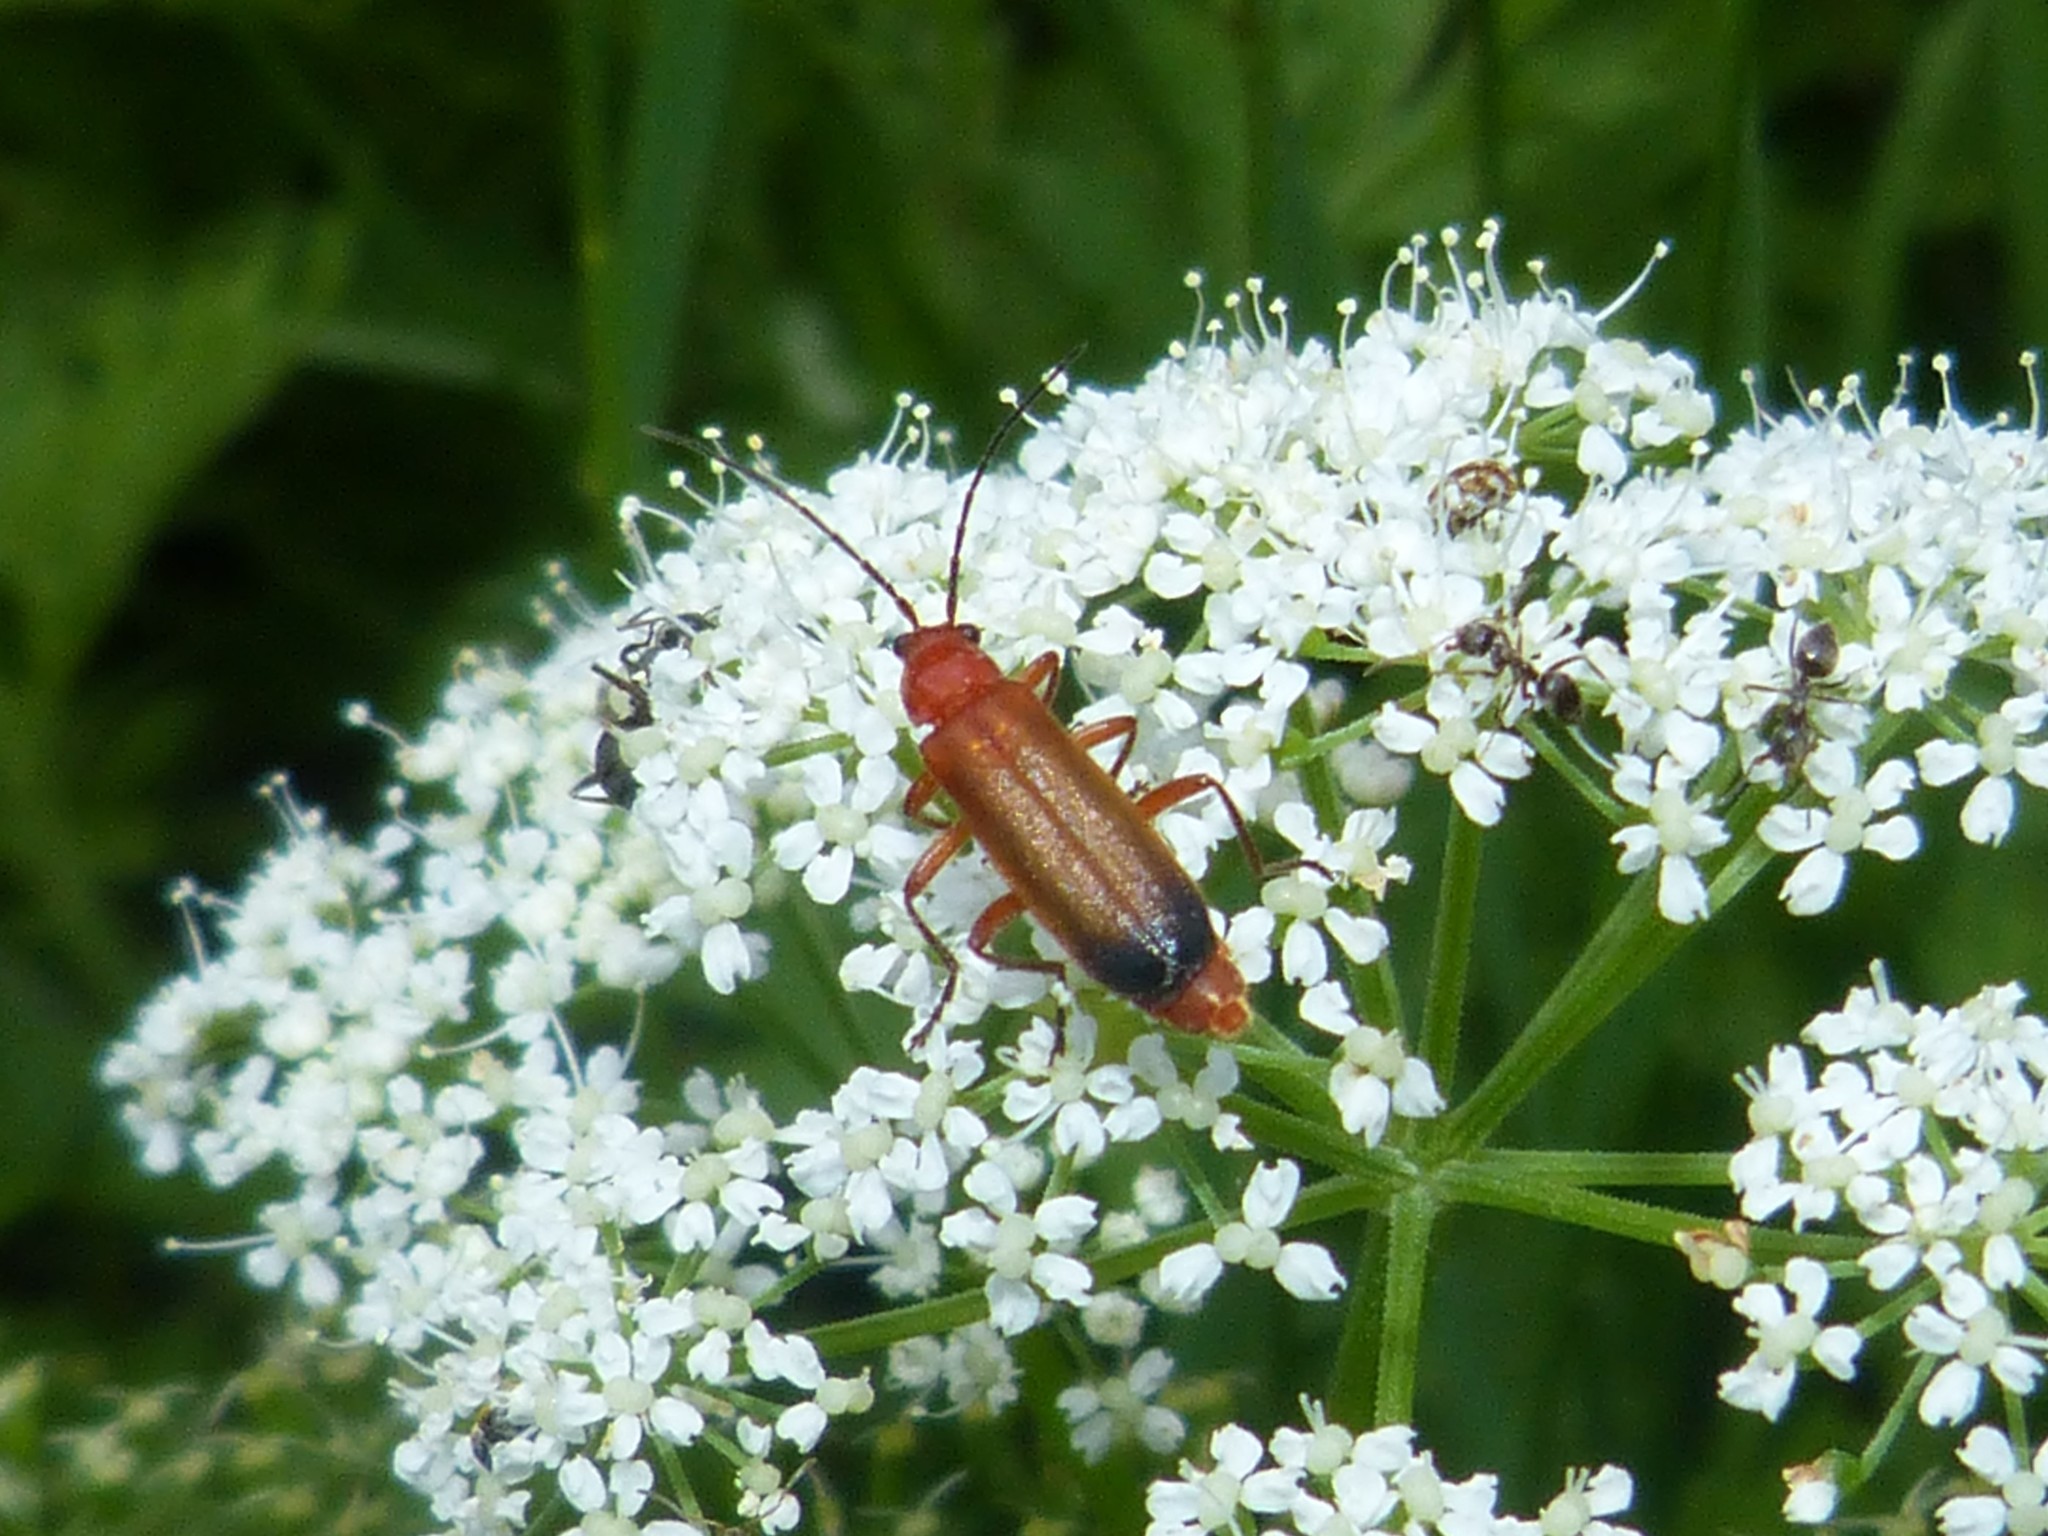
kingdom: Animalia
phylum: Arthropoda
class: Insecta
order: Coleoptera
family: Cantharidae
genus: Rhagonycha
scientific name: Rhagonycha fulva
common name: Common red soldier beetle
